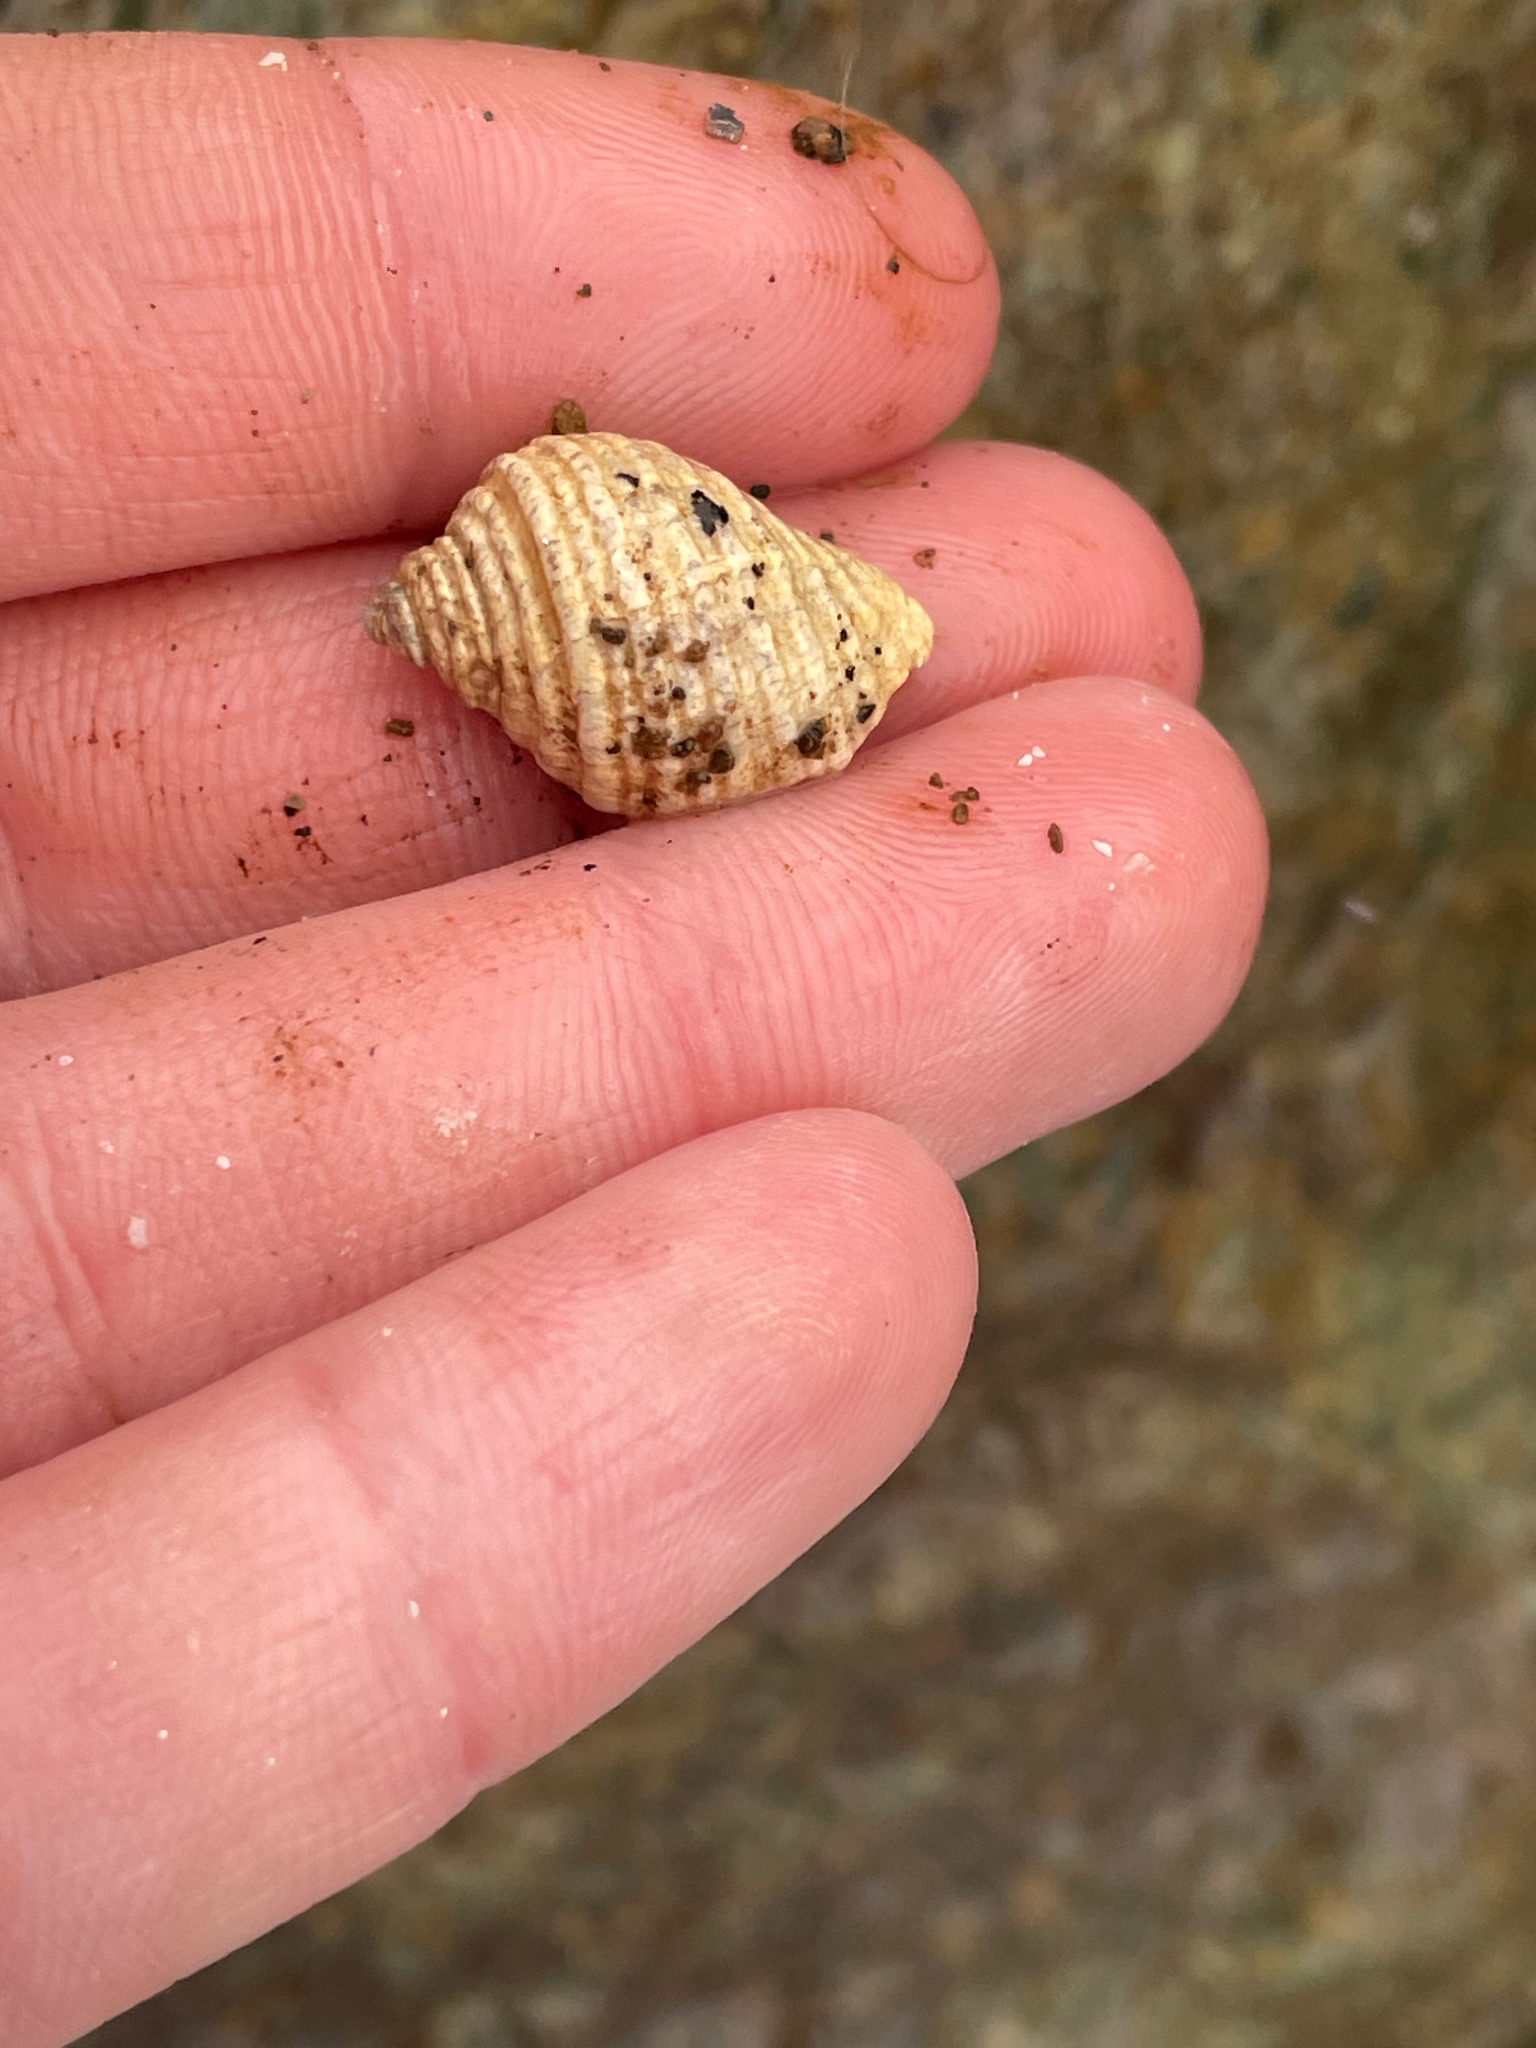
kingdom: Animalia
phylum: Mollusca
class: Gastropoda
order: Neogastropoda
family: Muricidae
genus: Nucella
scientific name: Nucella lapillus
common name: Dog whelk
